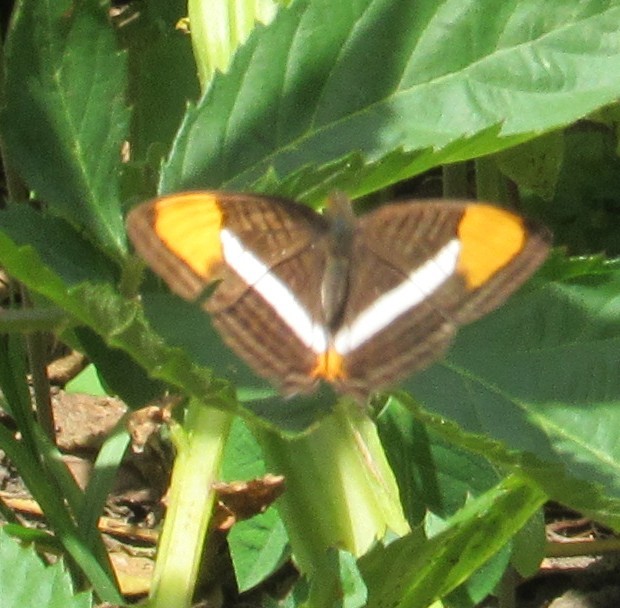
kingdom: Animalia
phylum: Arthropoda
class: Insecta
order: Lepidoptera
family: Nymphalidae
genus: Limenitis
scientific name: Limenitis syma
